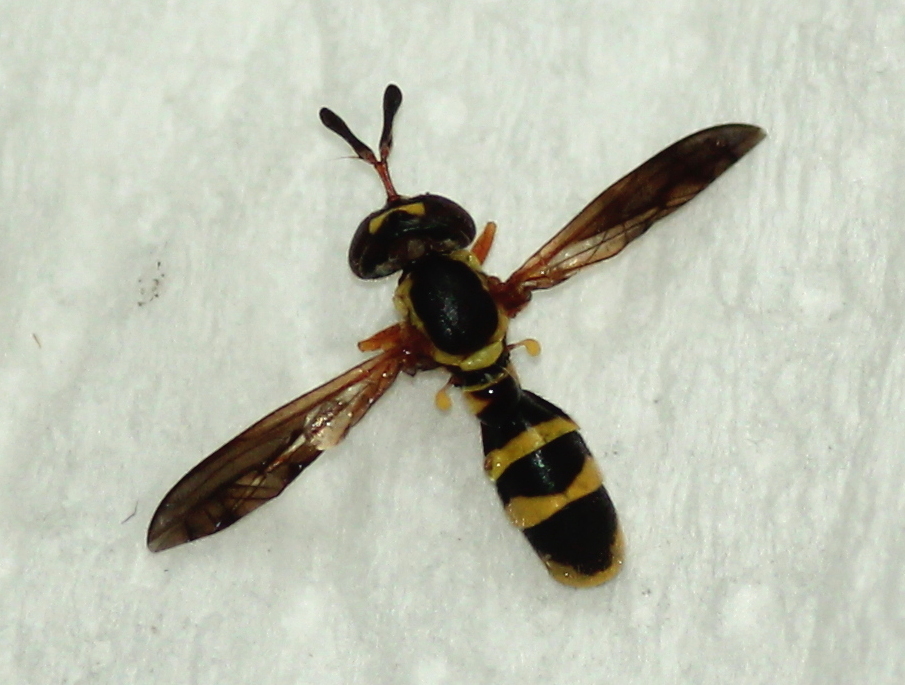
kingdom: Animalia
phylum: Arthropoda
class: Insecta
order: Diptera
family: Syrphidae
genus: Mixogaster
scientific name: Mixogaster breviventris
